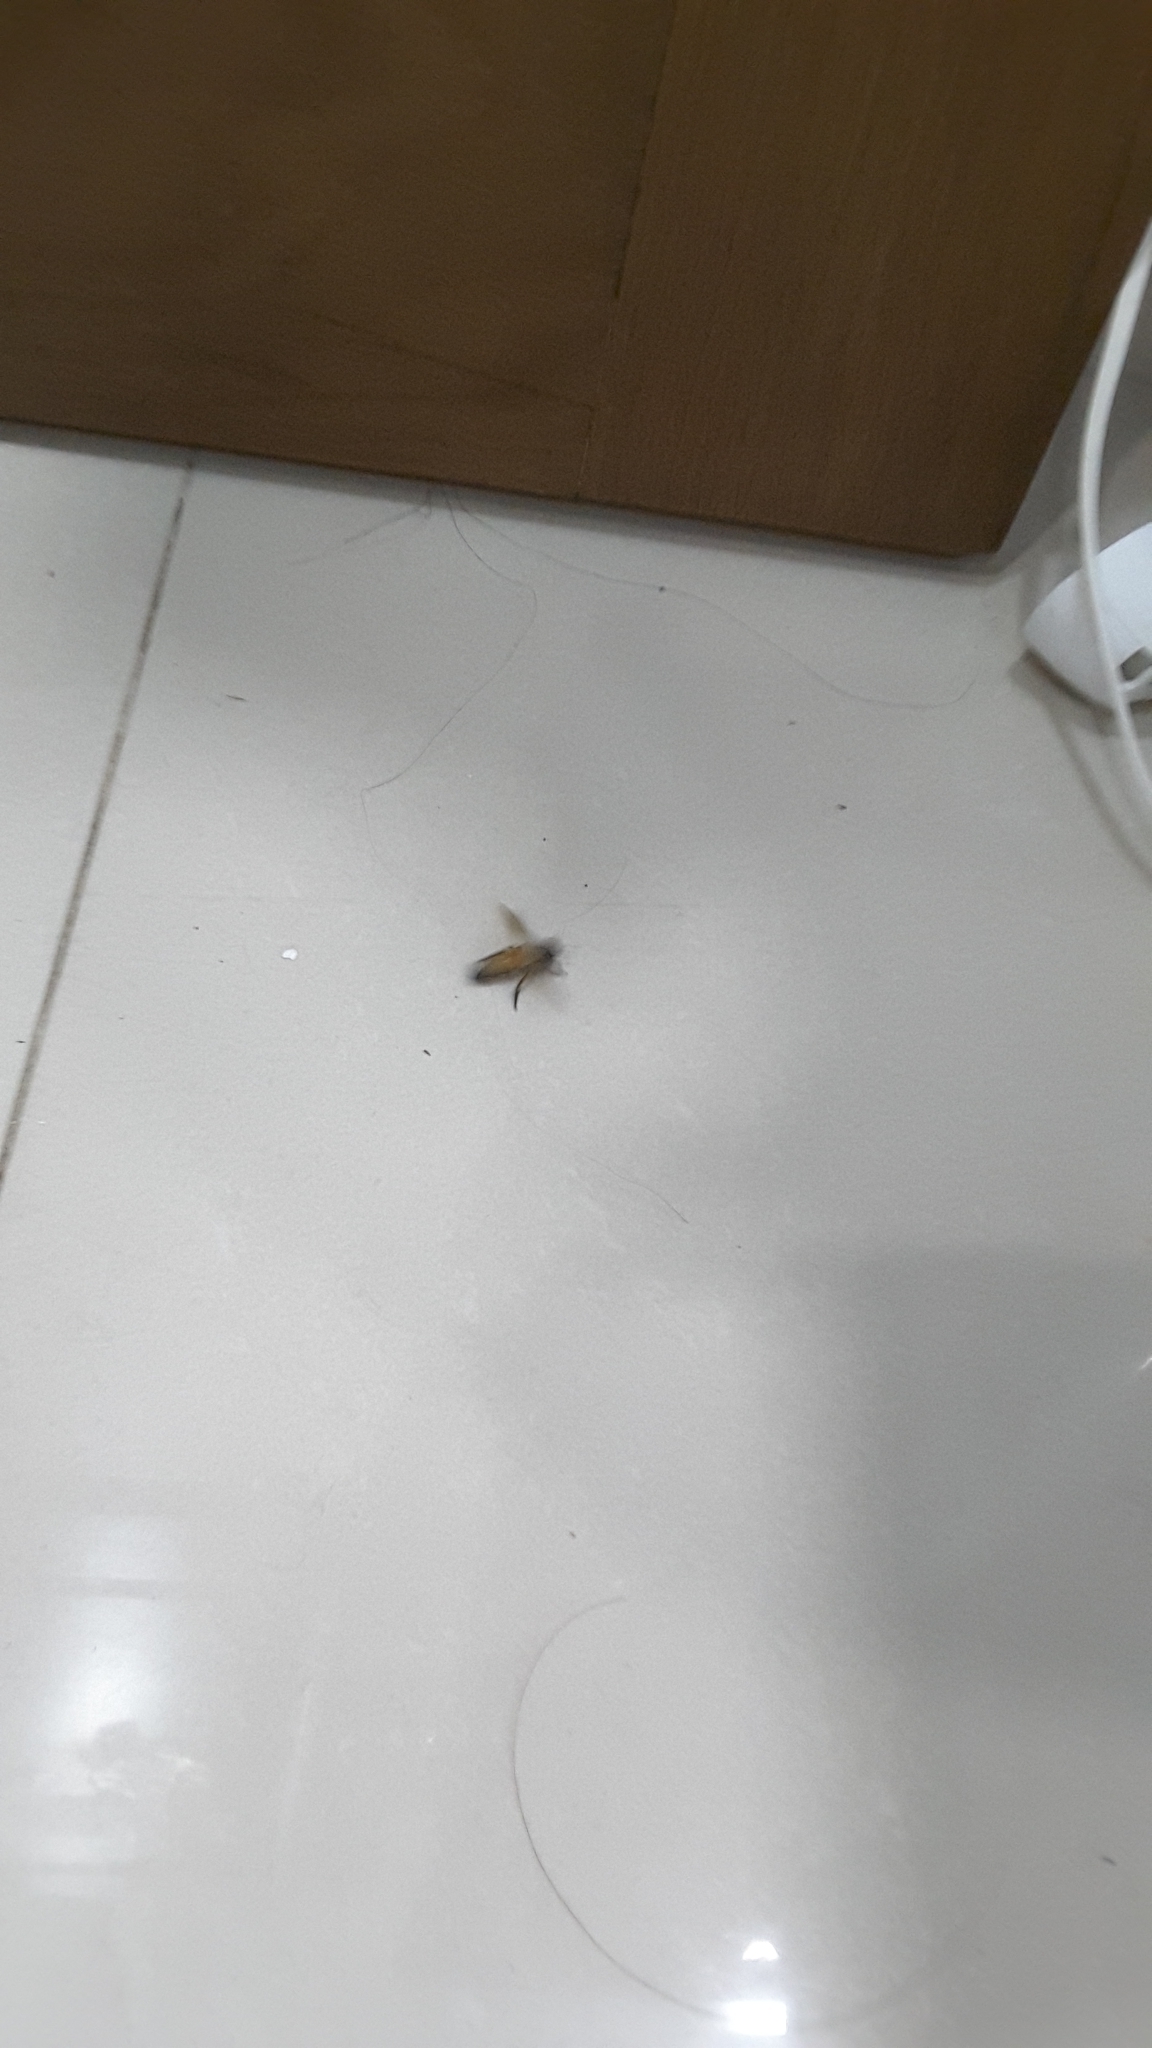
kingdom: Animalia
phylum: Arthropoda
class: Insecta
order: Hymenoptera
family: Apidae
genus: Apis
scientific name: Apis dorsata
